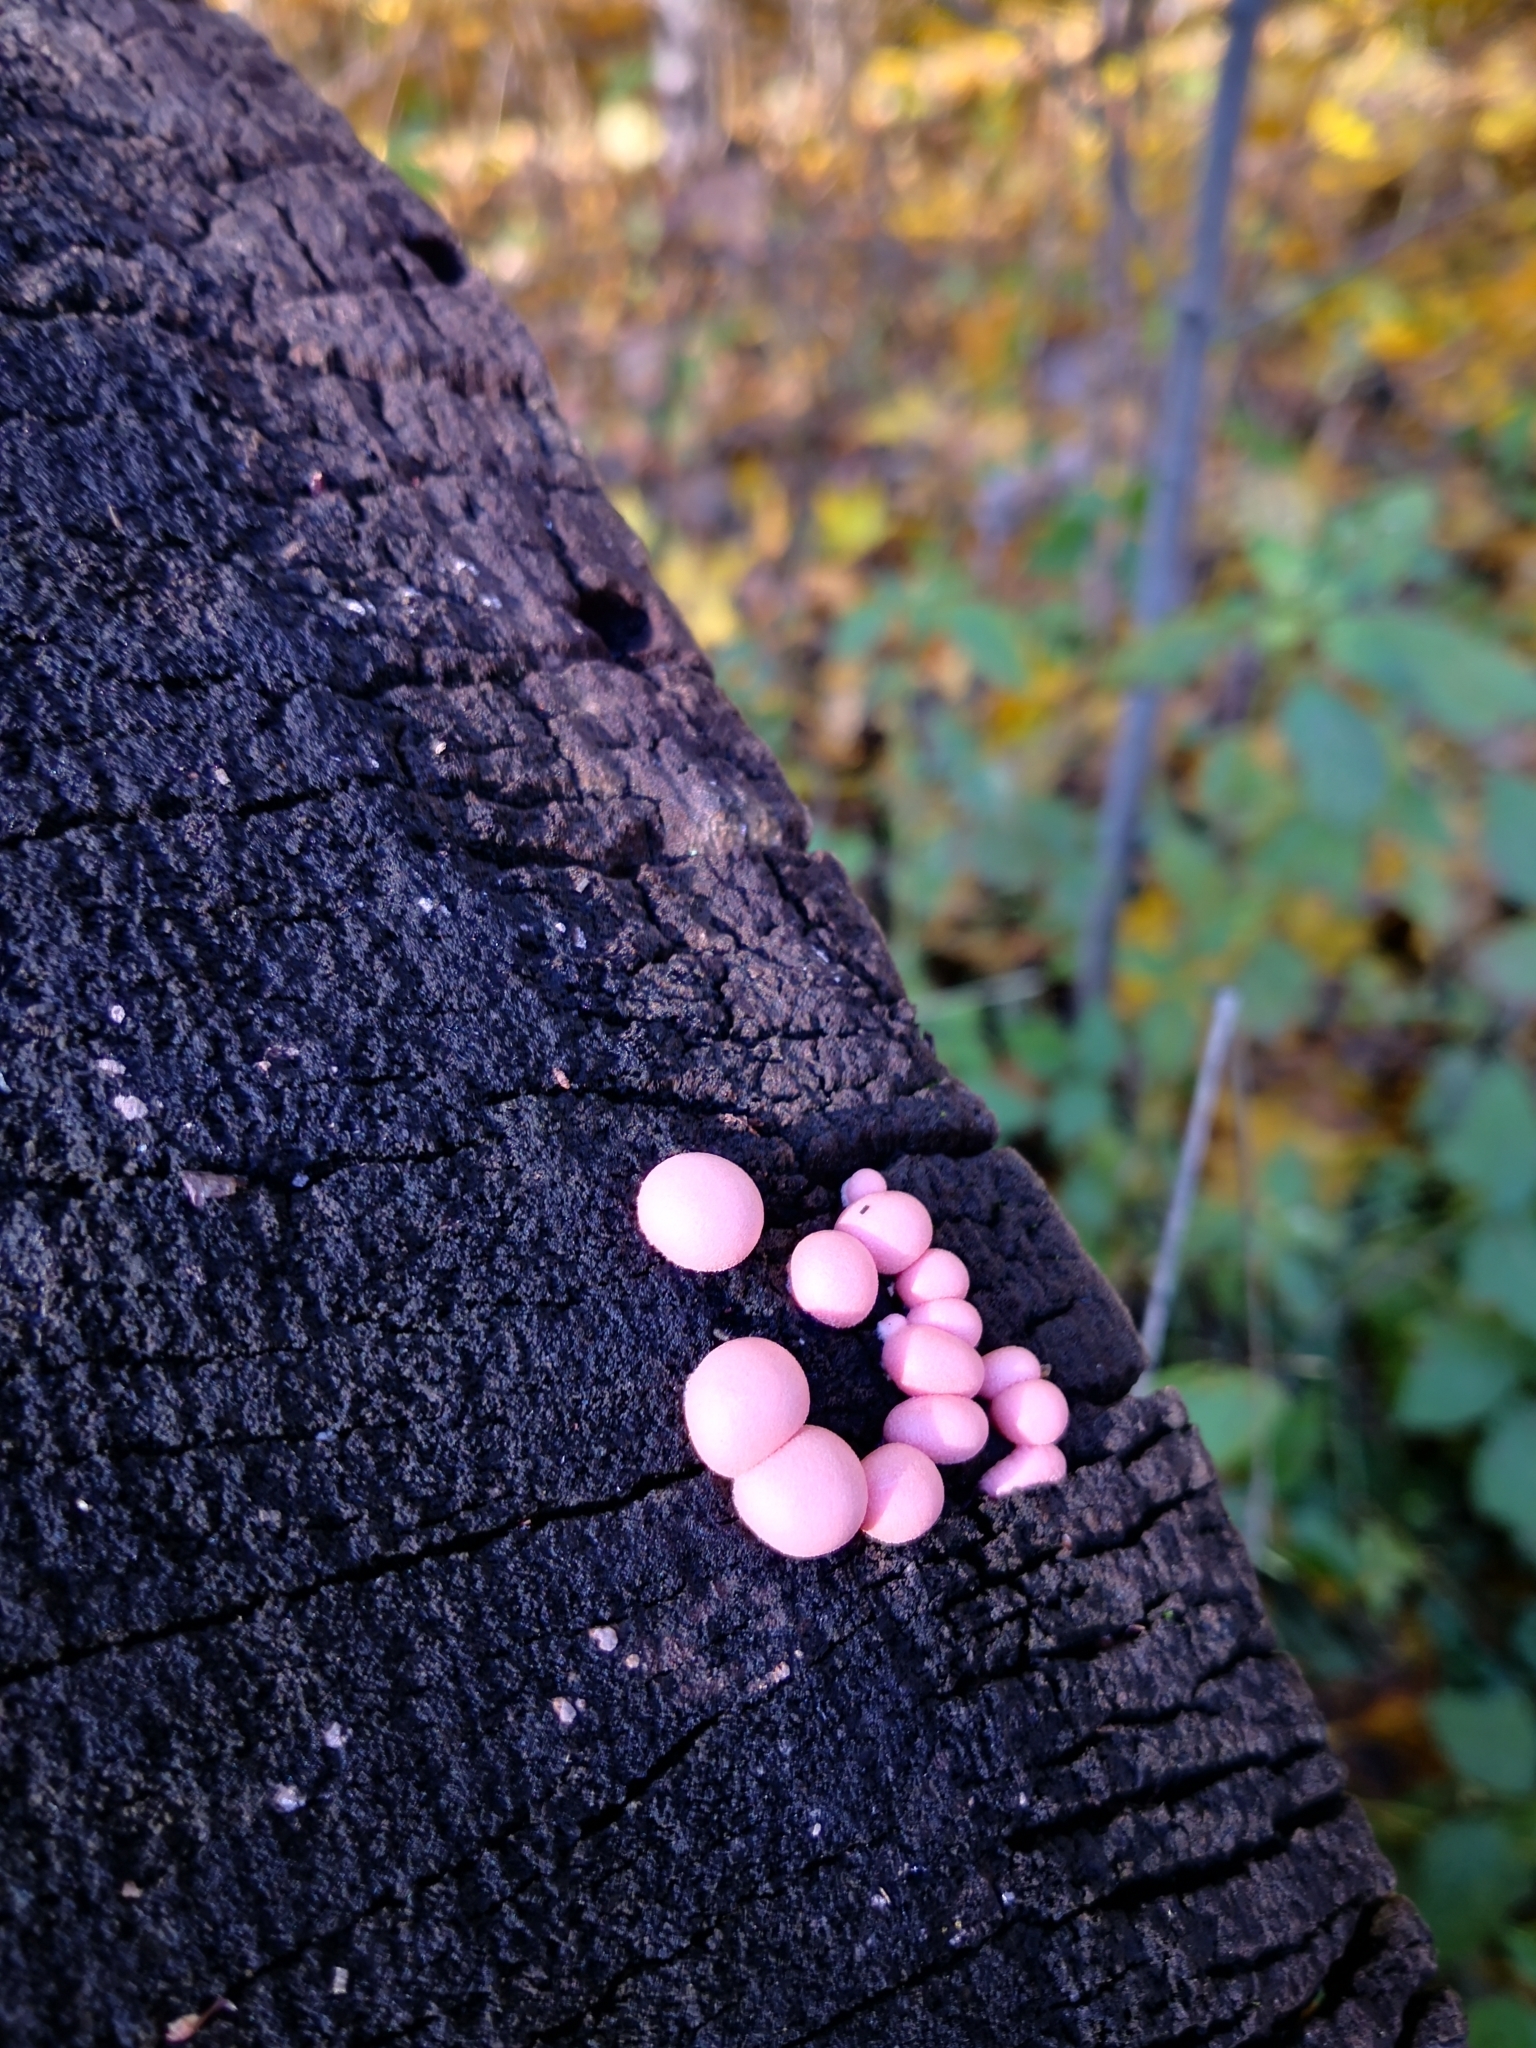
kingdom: Protozoa
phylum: Mycetozoa
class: Myxomycetes
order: Cribrariales
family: Tubiferaceae
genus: Lycogala
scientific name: Lycogala epidendrum
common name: Wolf's milk
